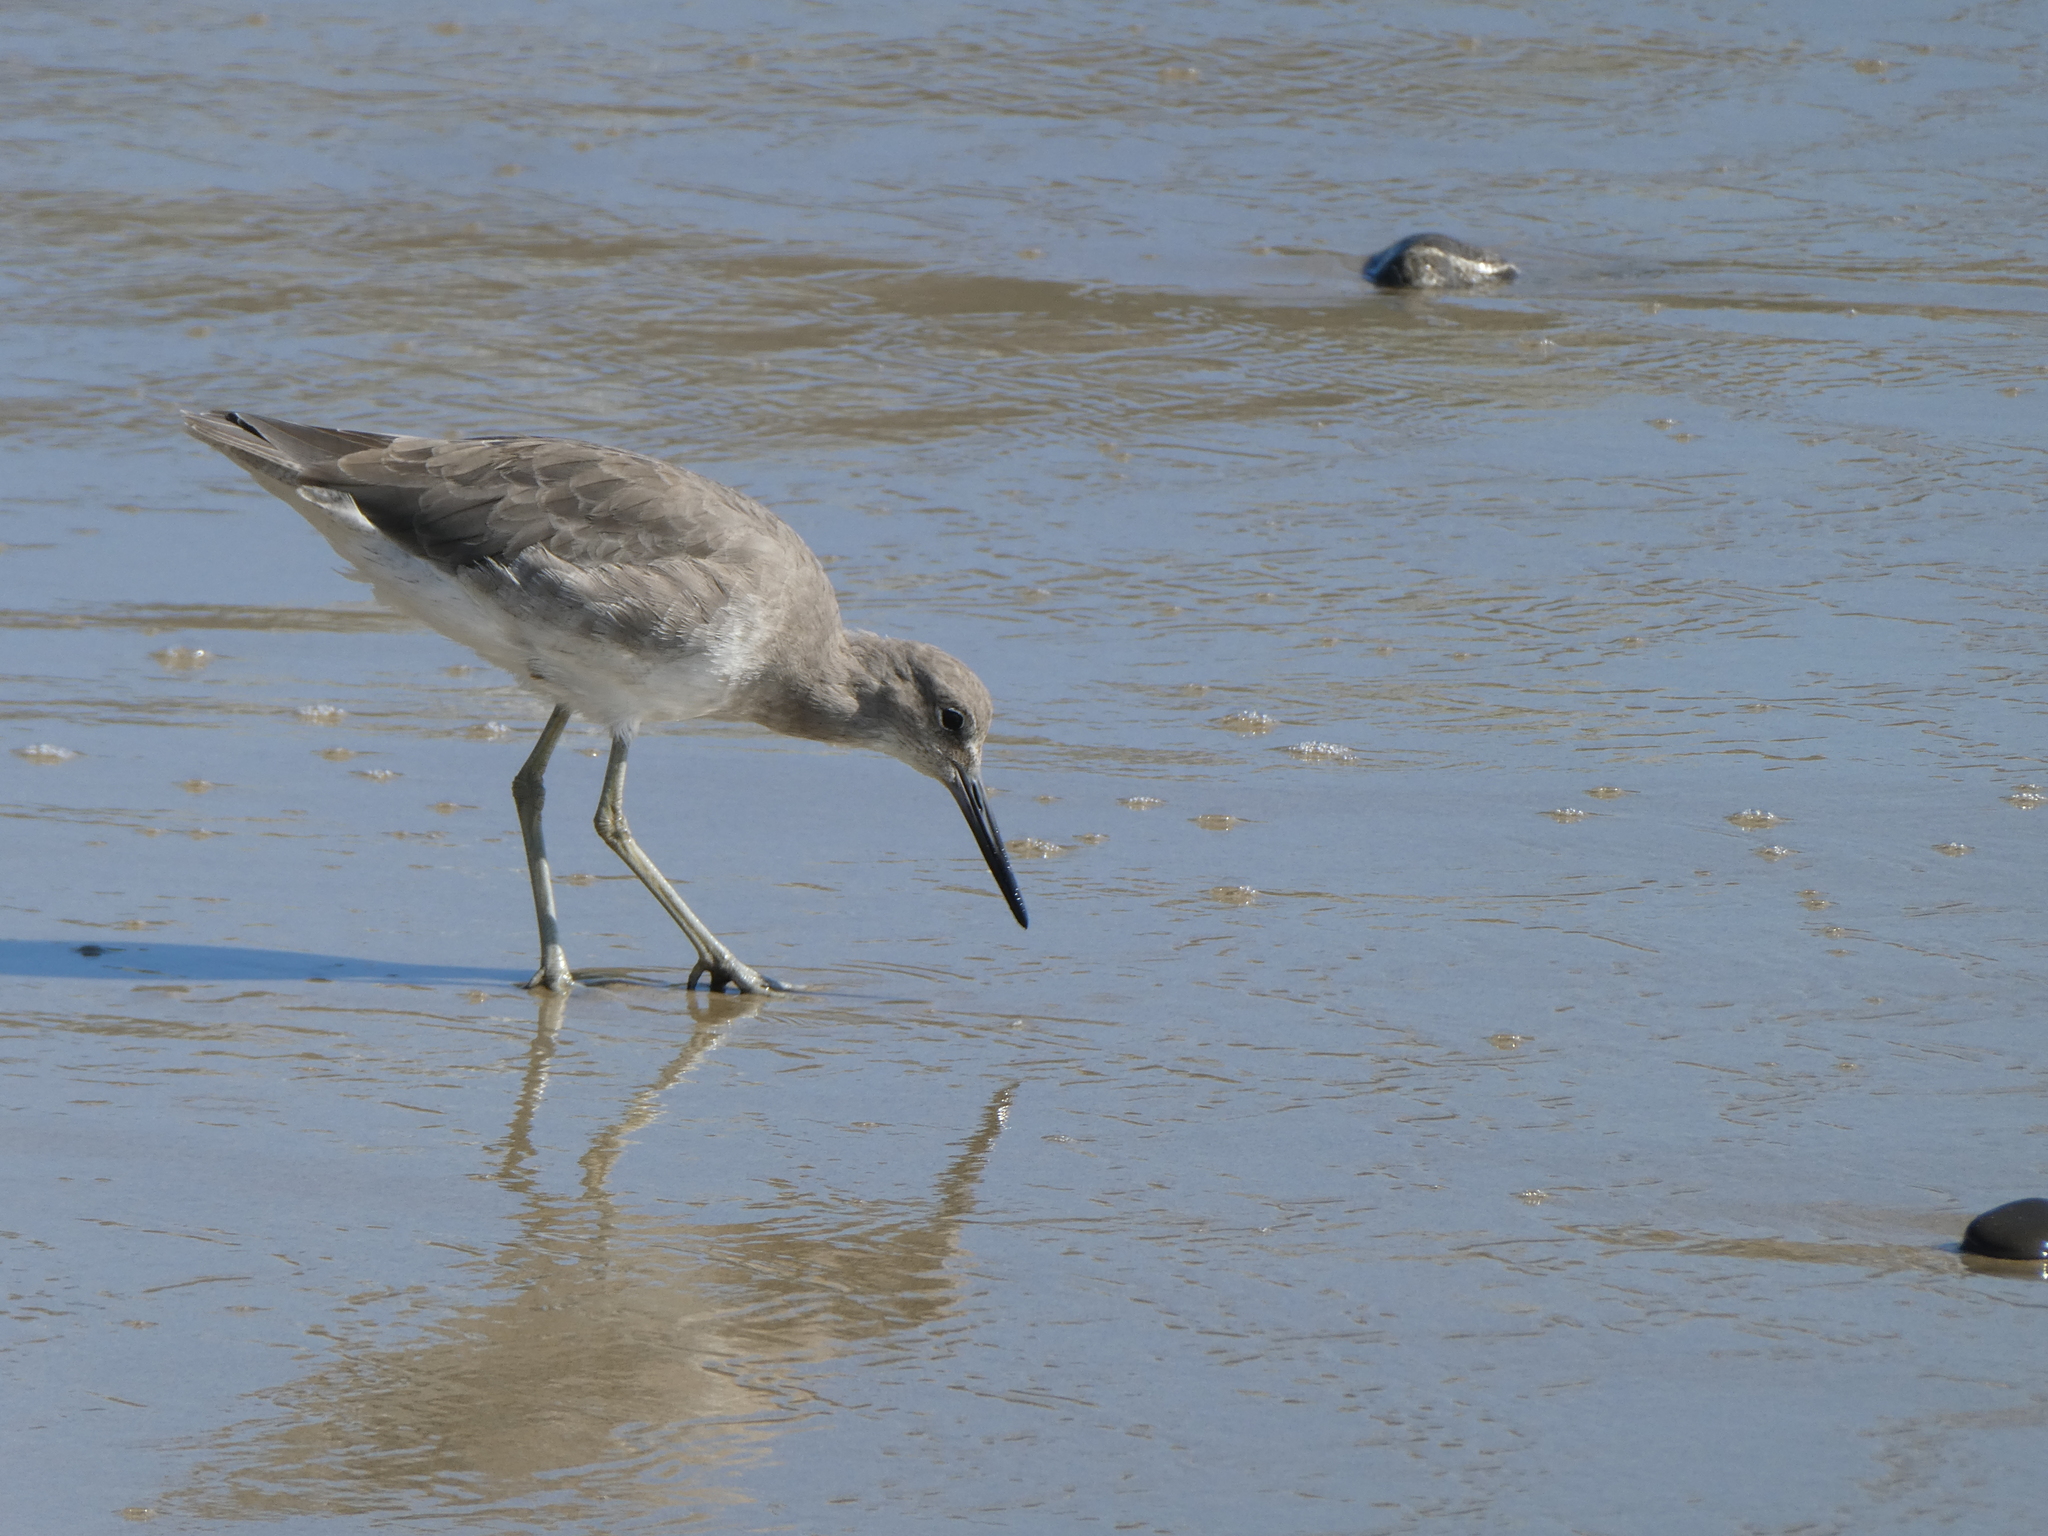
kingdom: Animalia
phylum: Chordata
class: Aves
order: Charadriiformes
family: Scolopacidae
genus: Tringa
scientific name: Tringa semipalmata
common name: Willet
